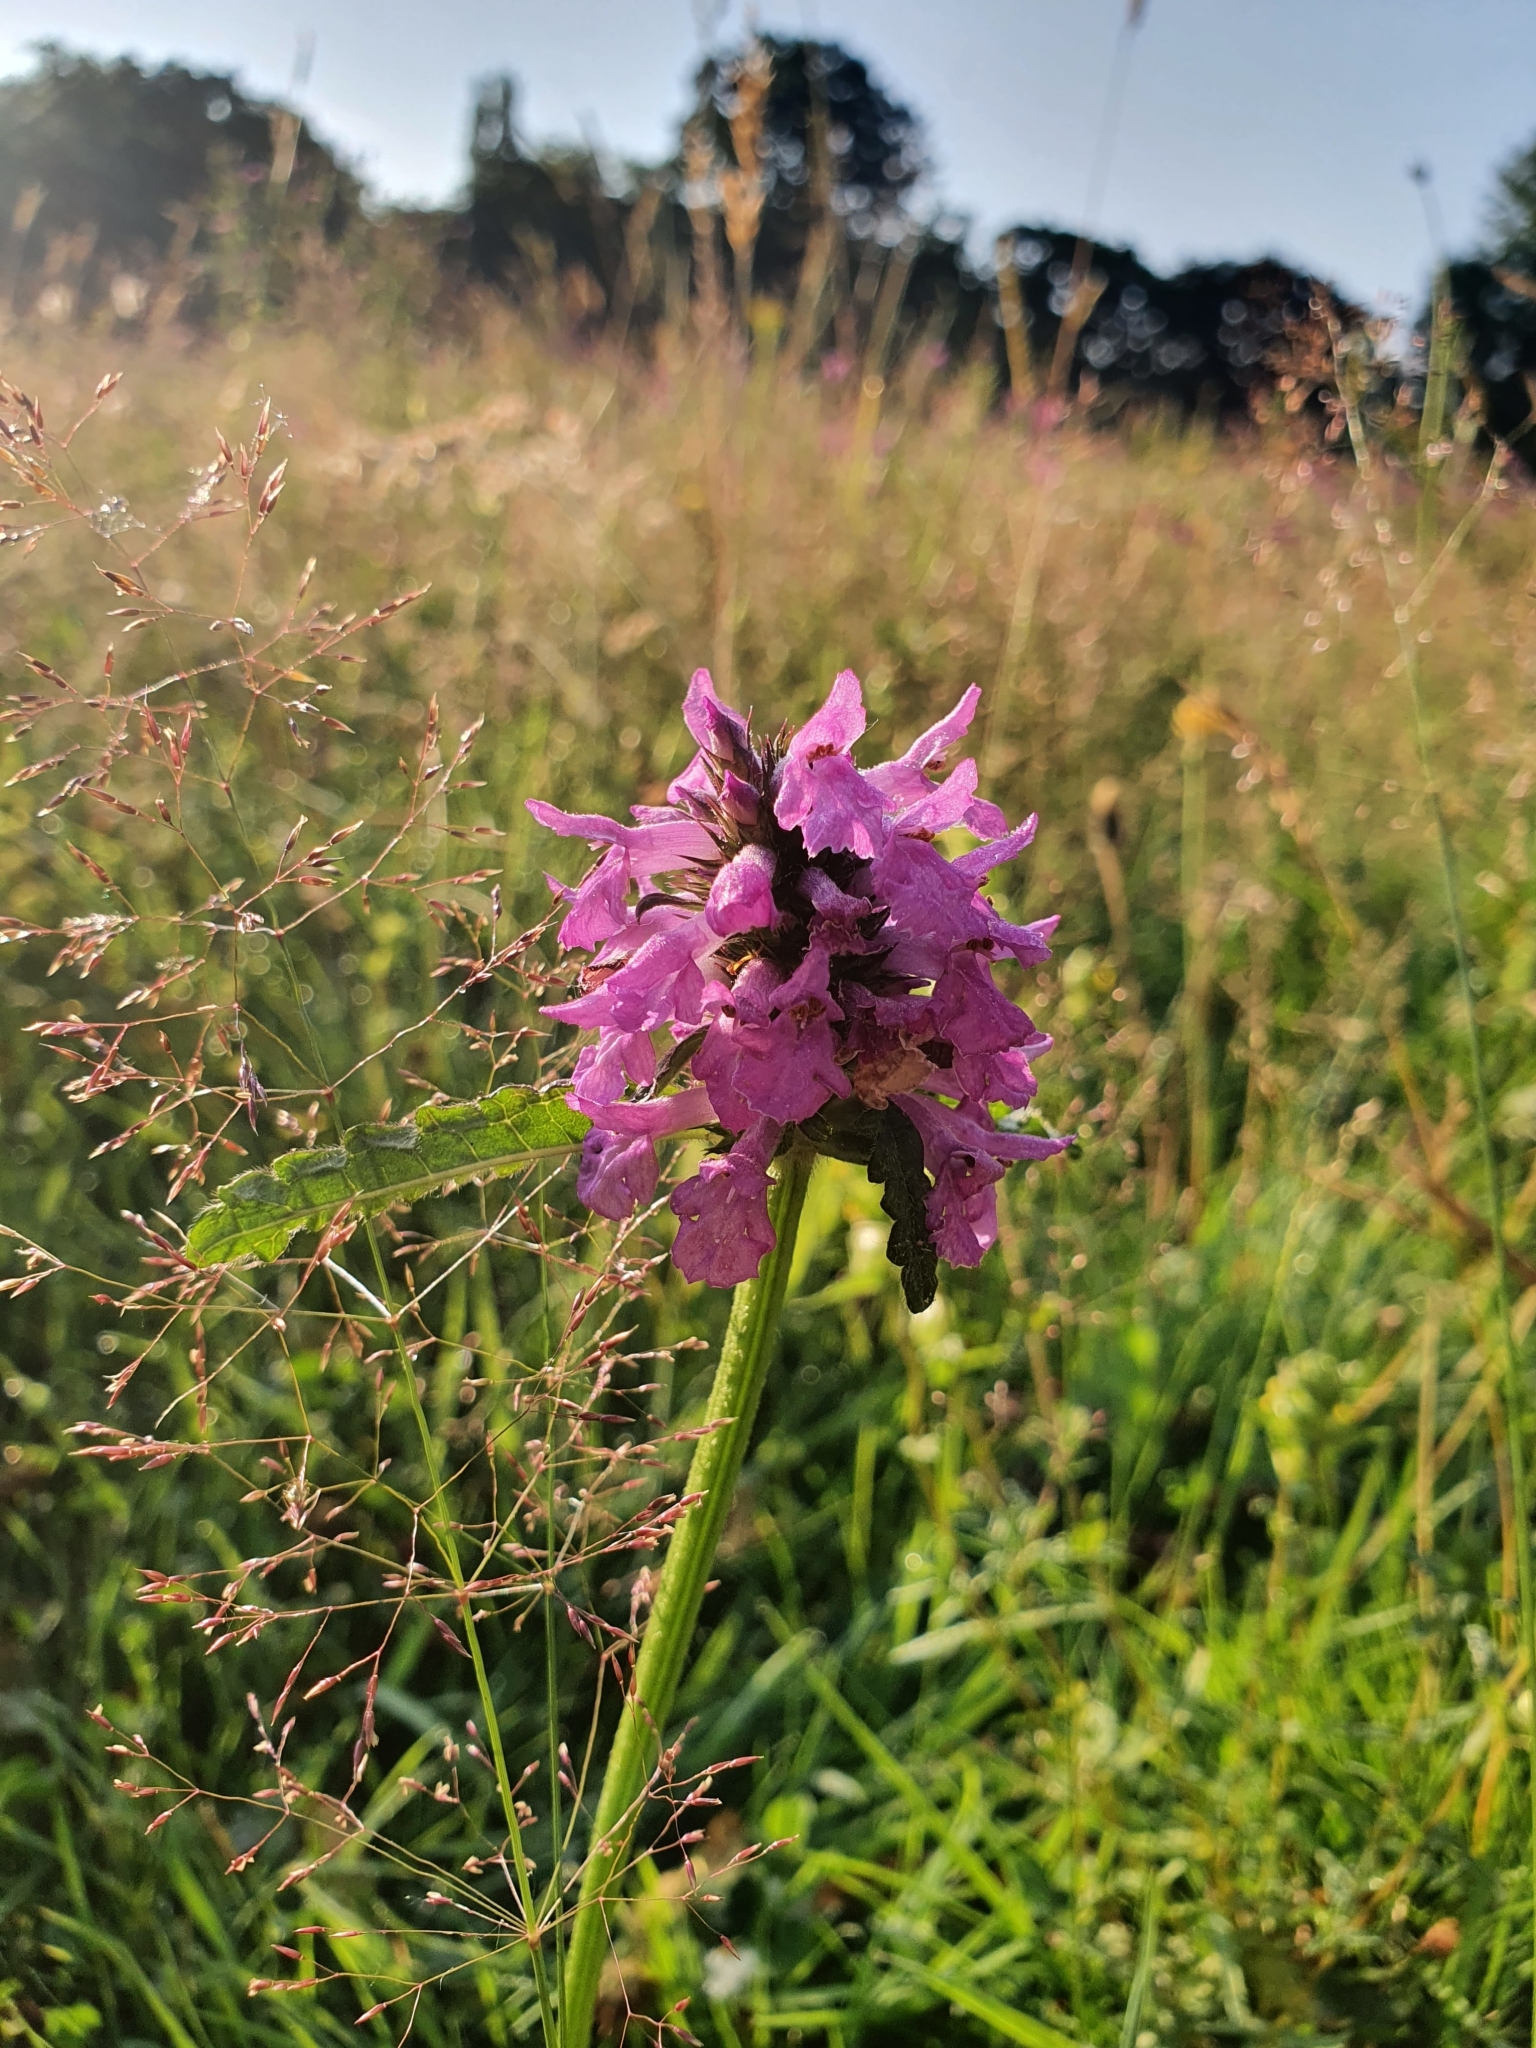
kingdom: Plantae
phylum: Tracheophyta
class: Magnoliopsida
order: Lamiales
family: Lamiaceae
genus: Betonica
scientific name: Betonica officinalis
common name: Bishop's-wort
